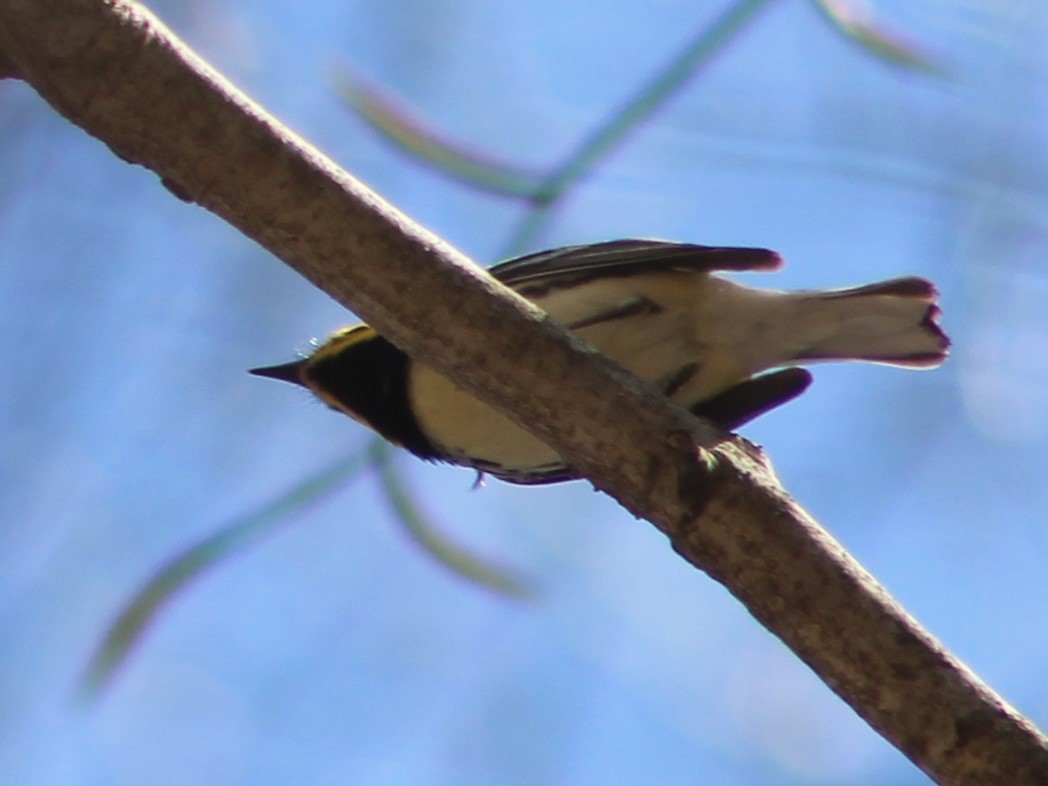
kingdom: Animalia
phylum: Chordata
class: Aves
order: Passeriformes
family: Parulidae
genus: Setophaga
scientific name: Setophaga virens
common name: Black-throated green warbler
